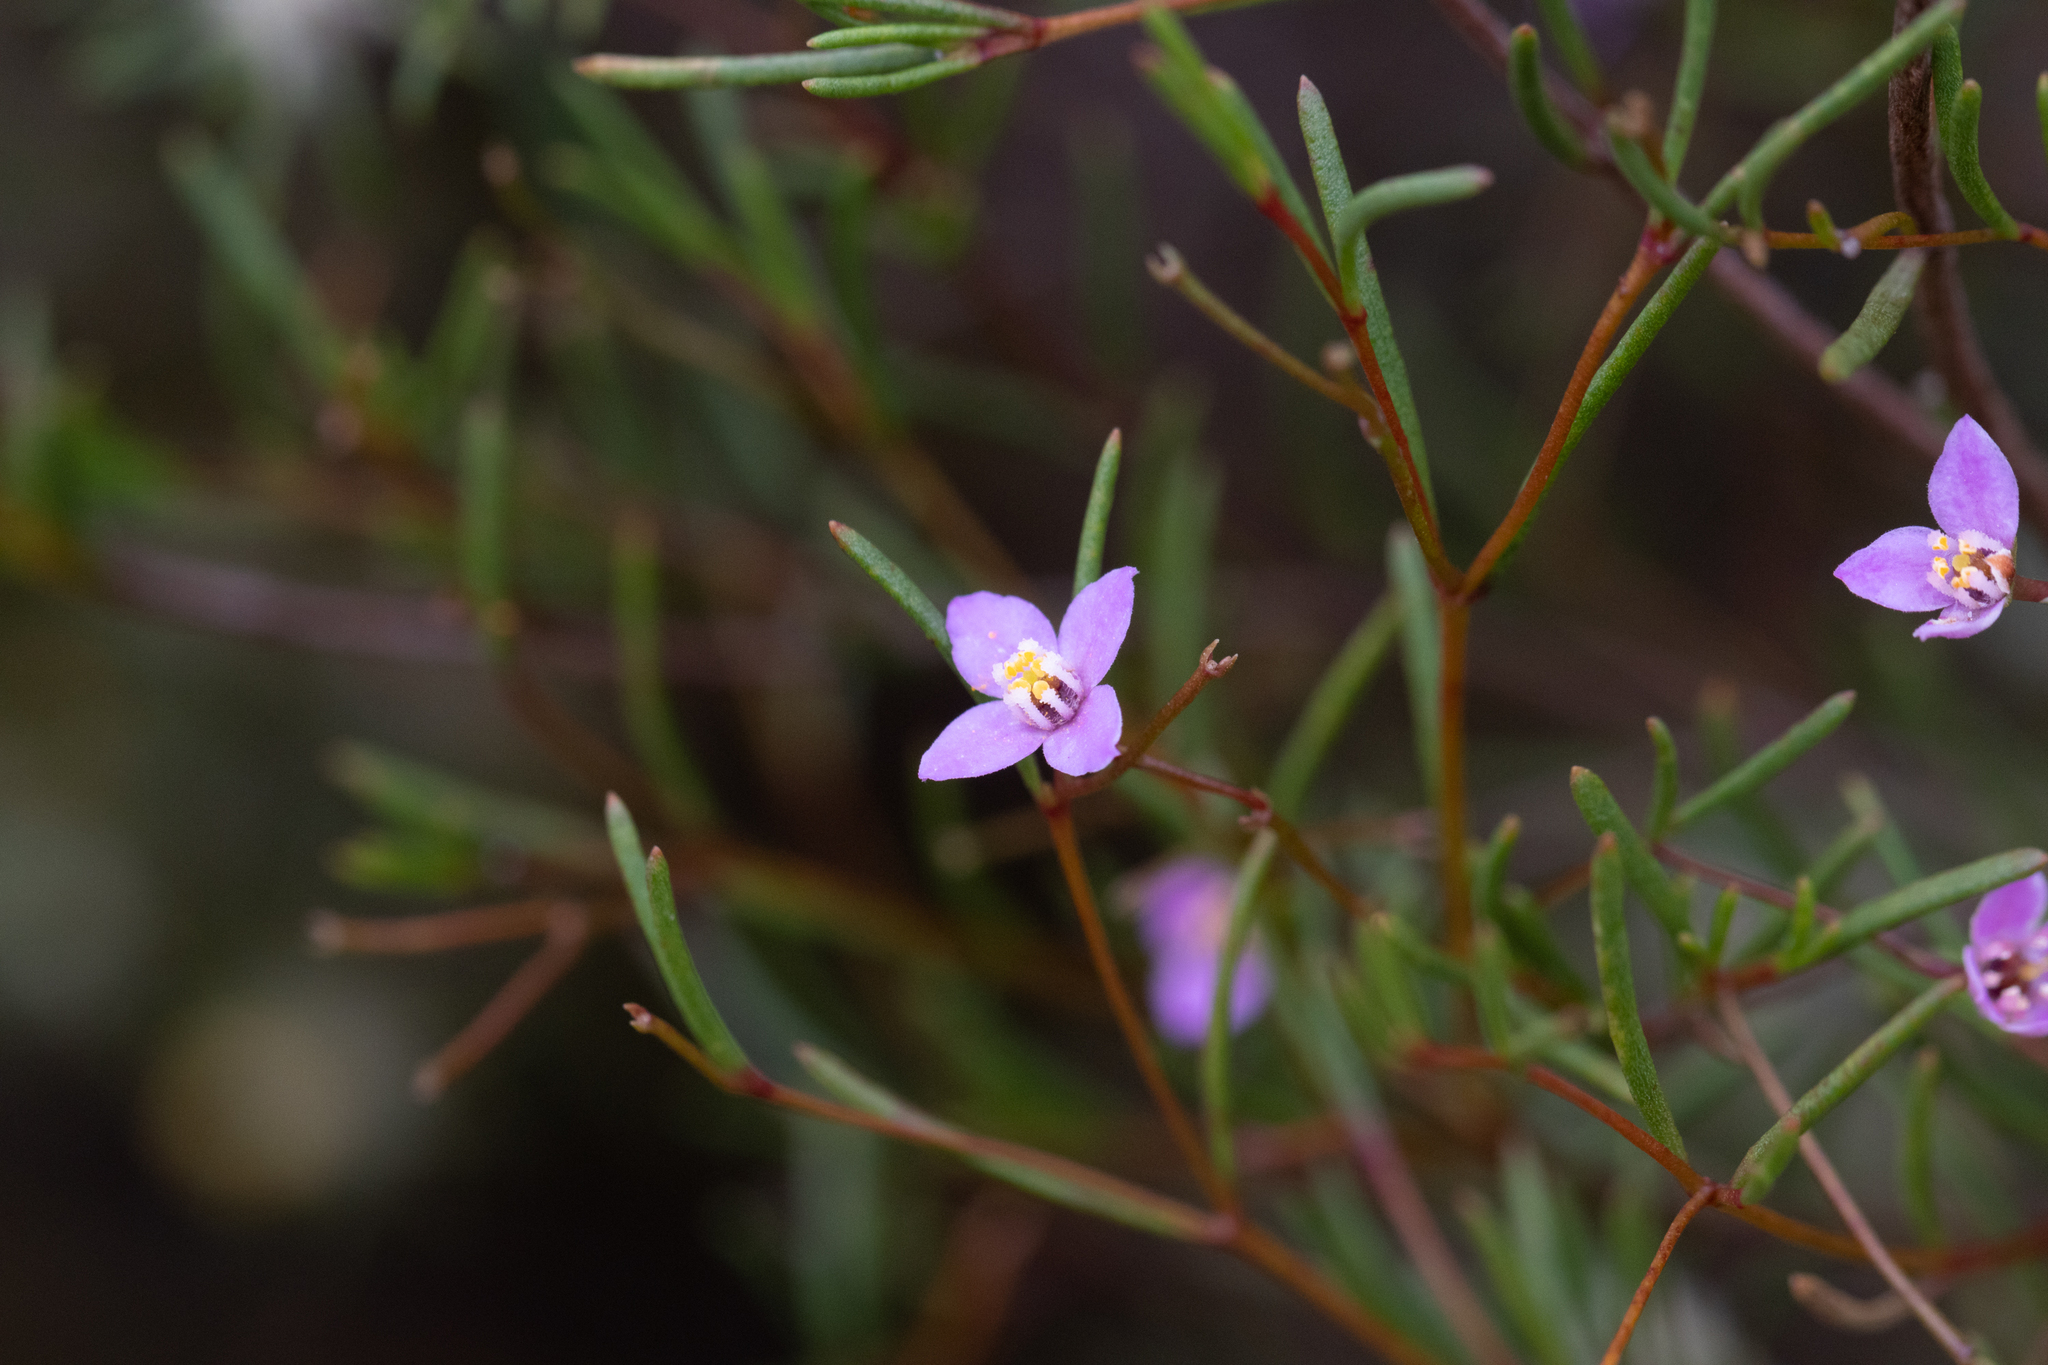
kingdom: Plantae
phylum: Tracheophyta
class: Magnoliopsida
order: Sapindales
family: Rutaceae
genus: Boronia
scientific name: Boronia filifolia
